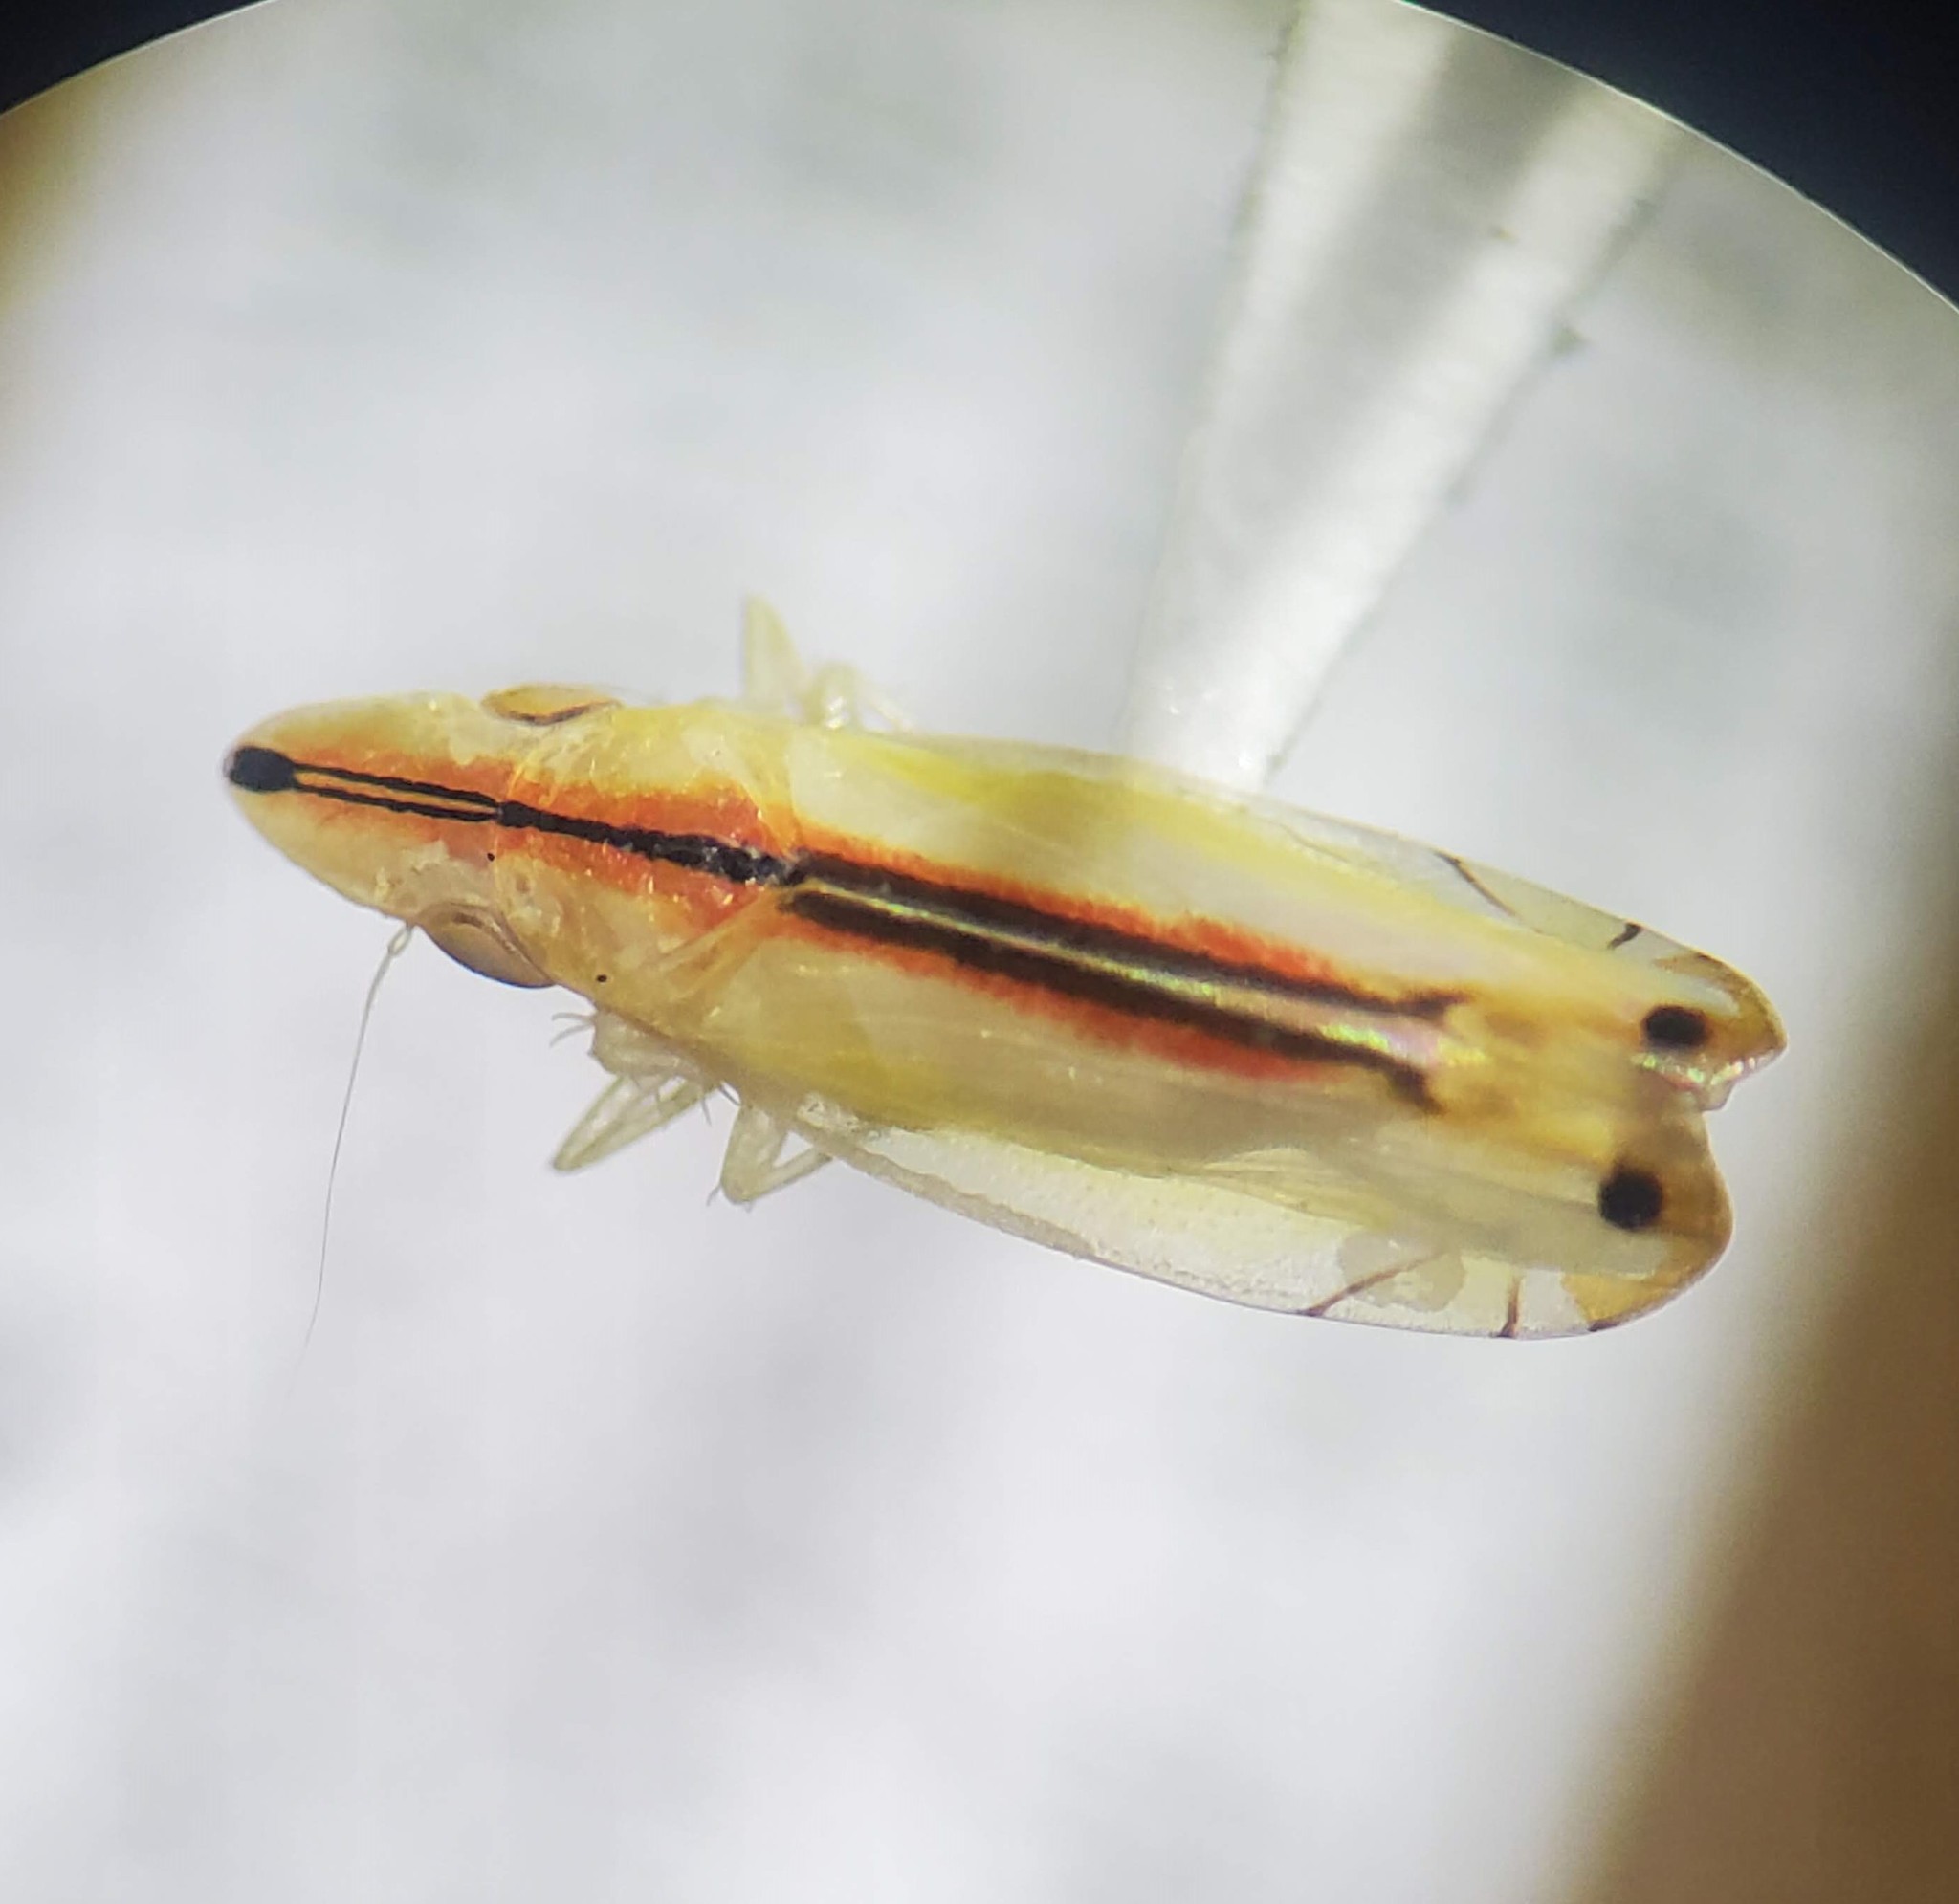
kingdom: Animalia
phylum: Arthropoda
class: Insecta
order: Hemiptera
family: Cicadellidae
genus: Sophonia
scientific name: Sophonia orientalis
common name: Two-spotted leafhopper
